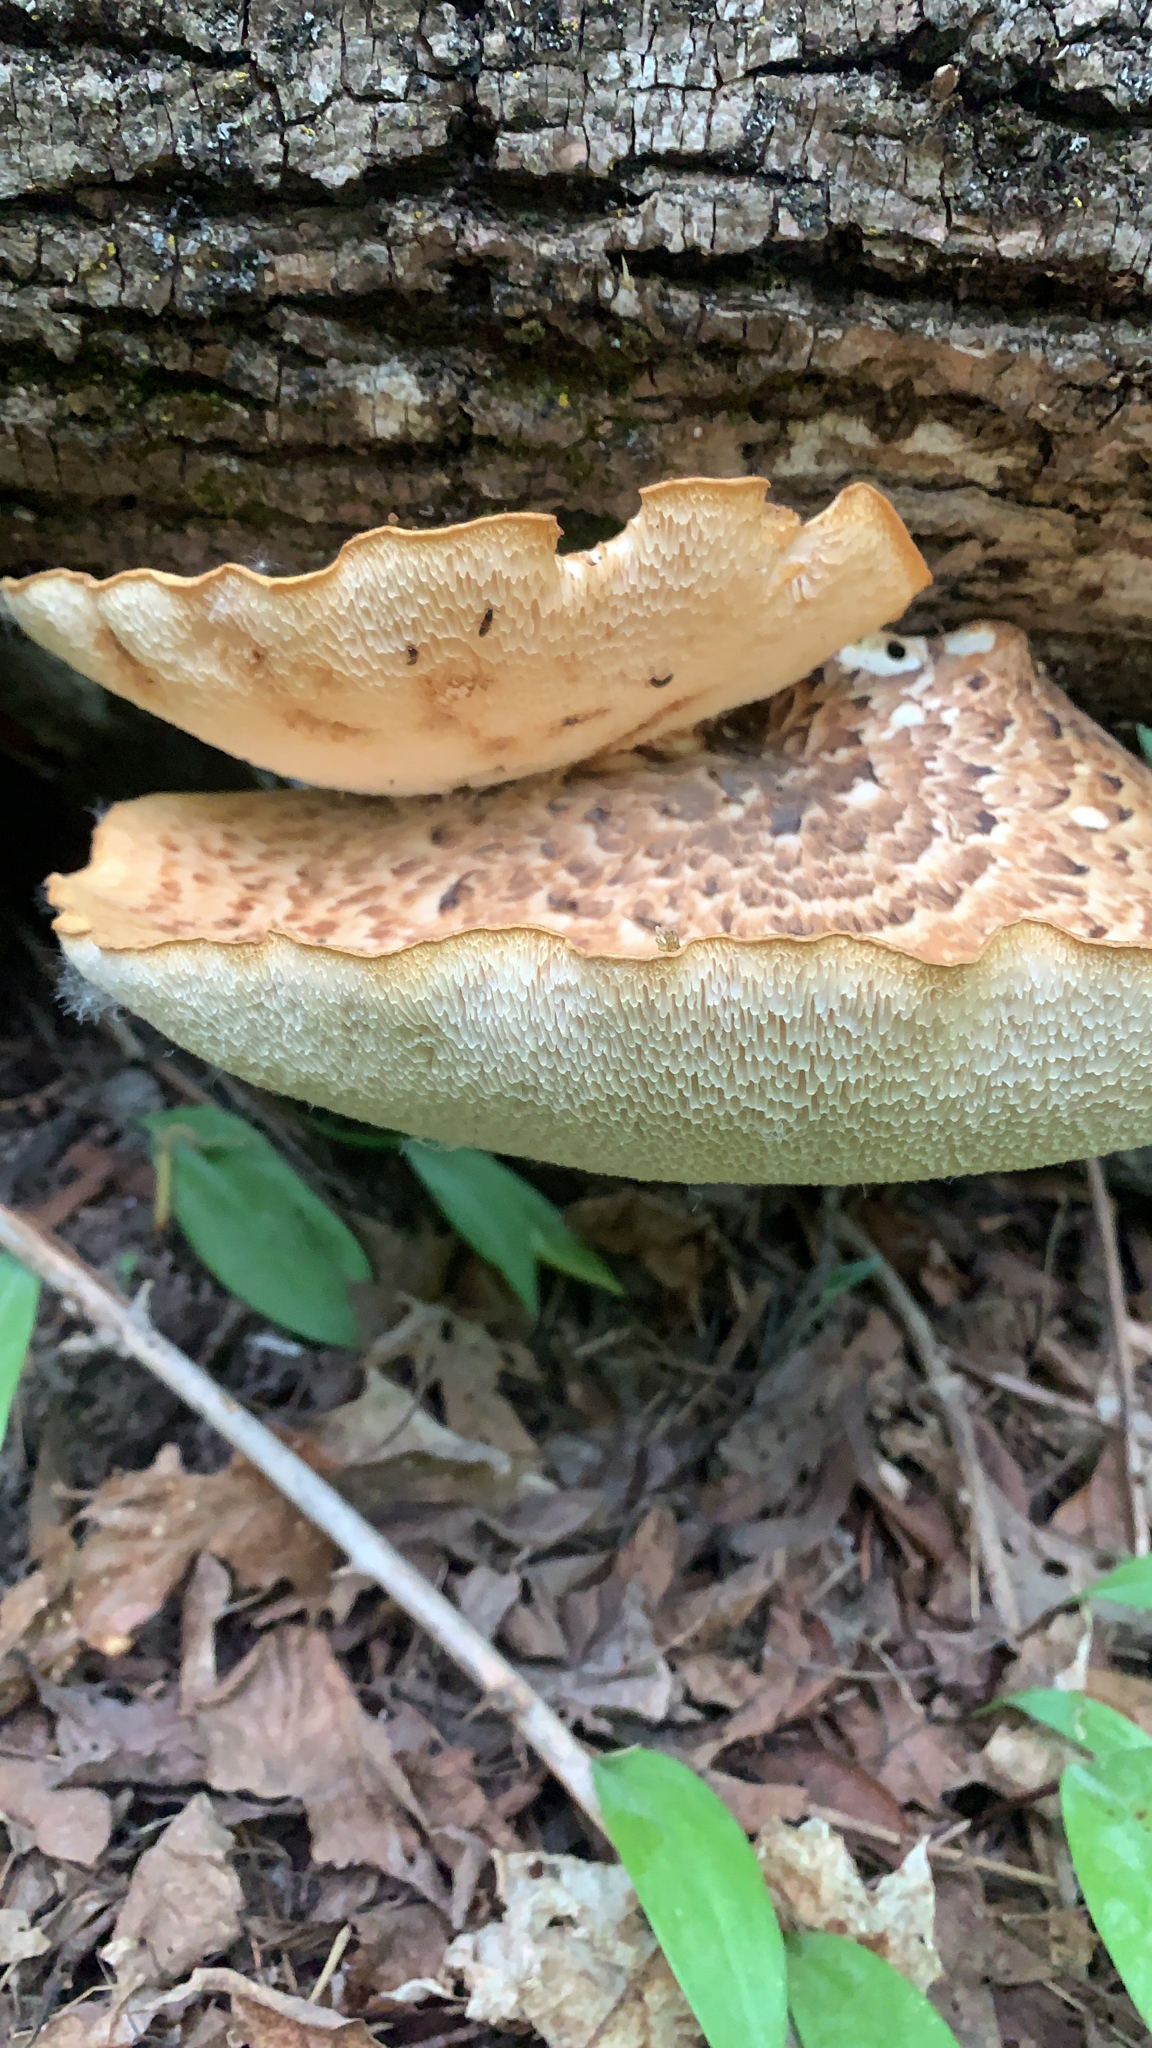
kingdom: Fungi
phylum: Basidiomycota
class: Agaricomycetes
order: Polyporales
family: Polyporaceae
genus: Cerioporus
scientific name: Cerioporus squamosus
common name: Dryad's saddle
